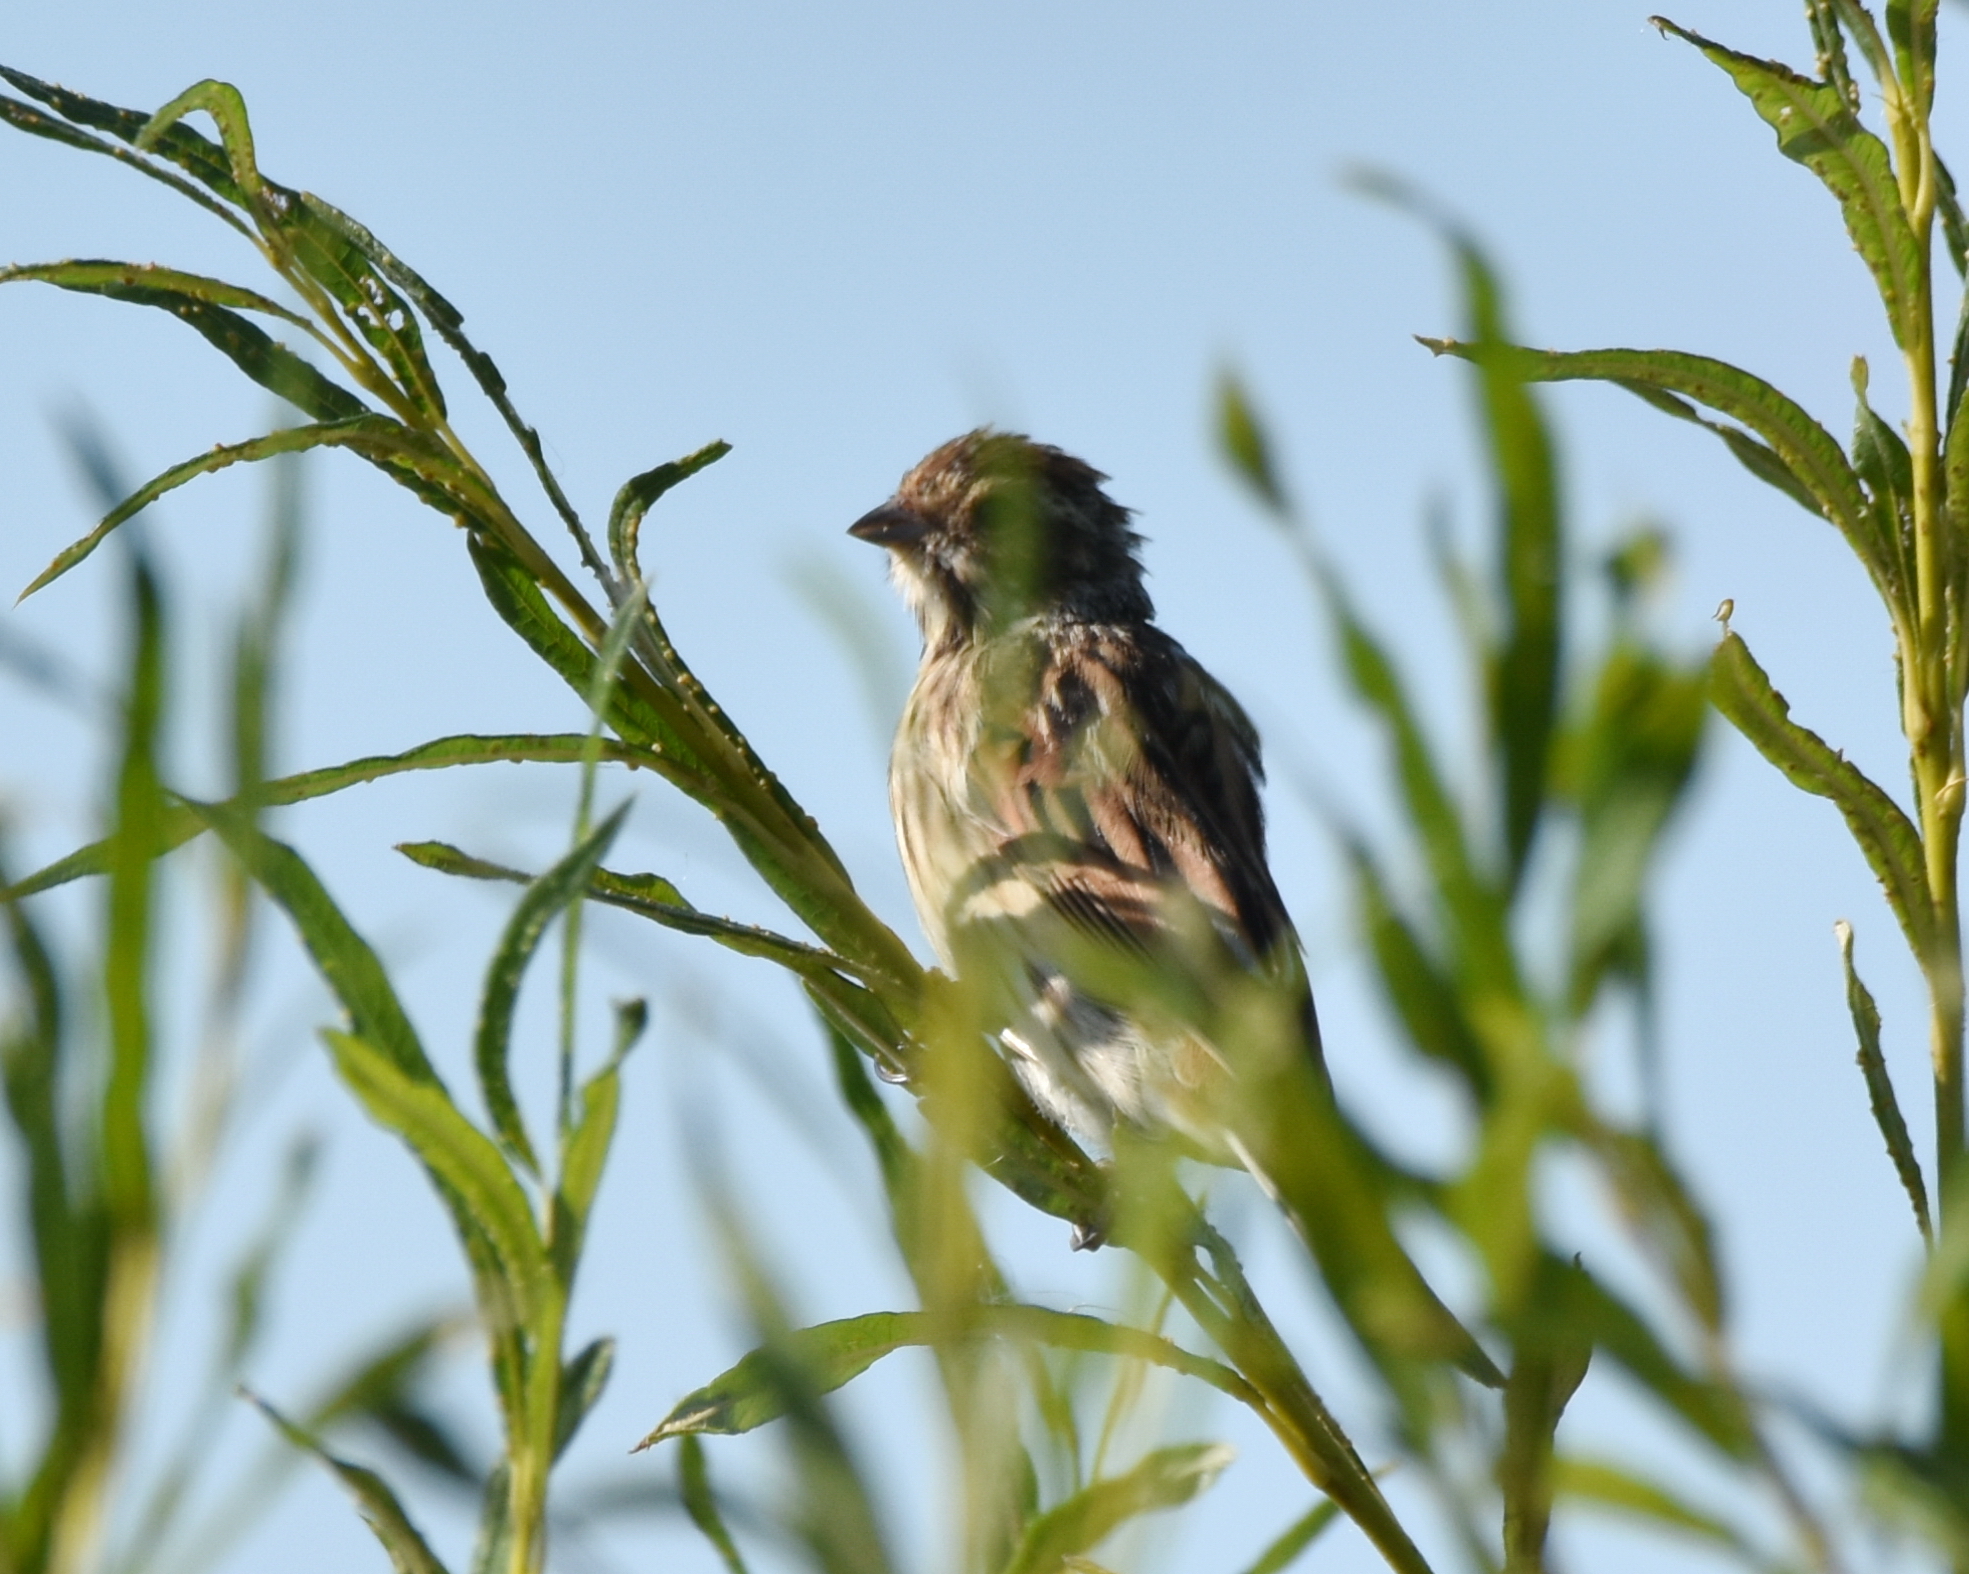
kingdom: Animalia
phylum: Chordata
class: Aves
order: Passeriformes
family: Emberizidae
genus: Emberiza
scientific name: Emberiza schoeniclus
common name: Reed bunting
